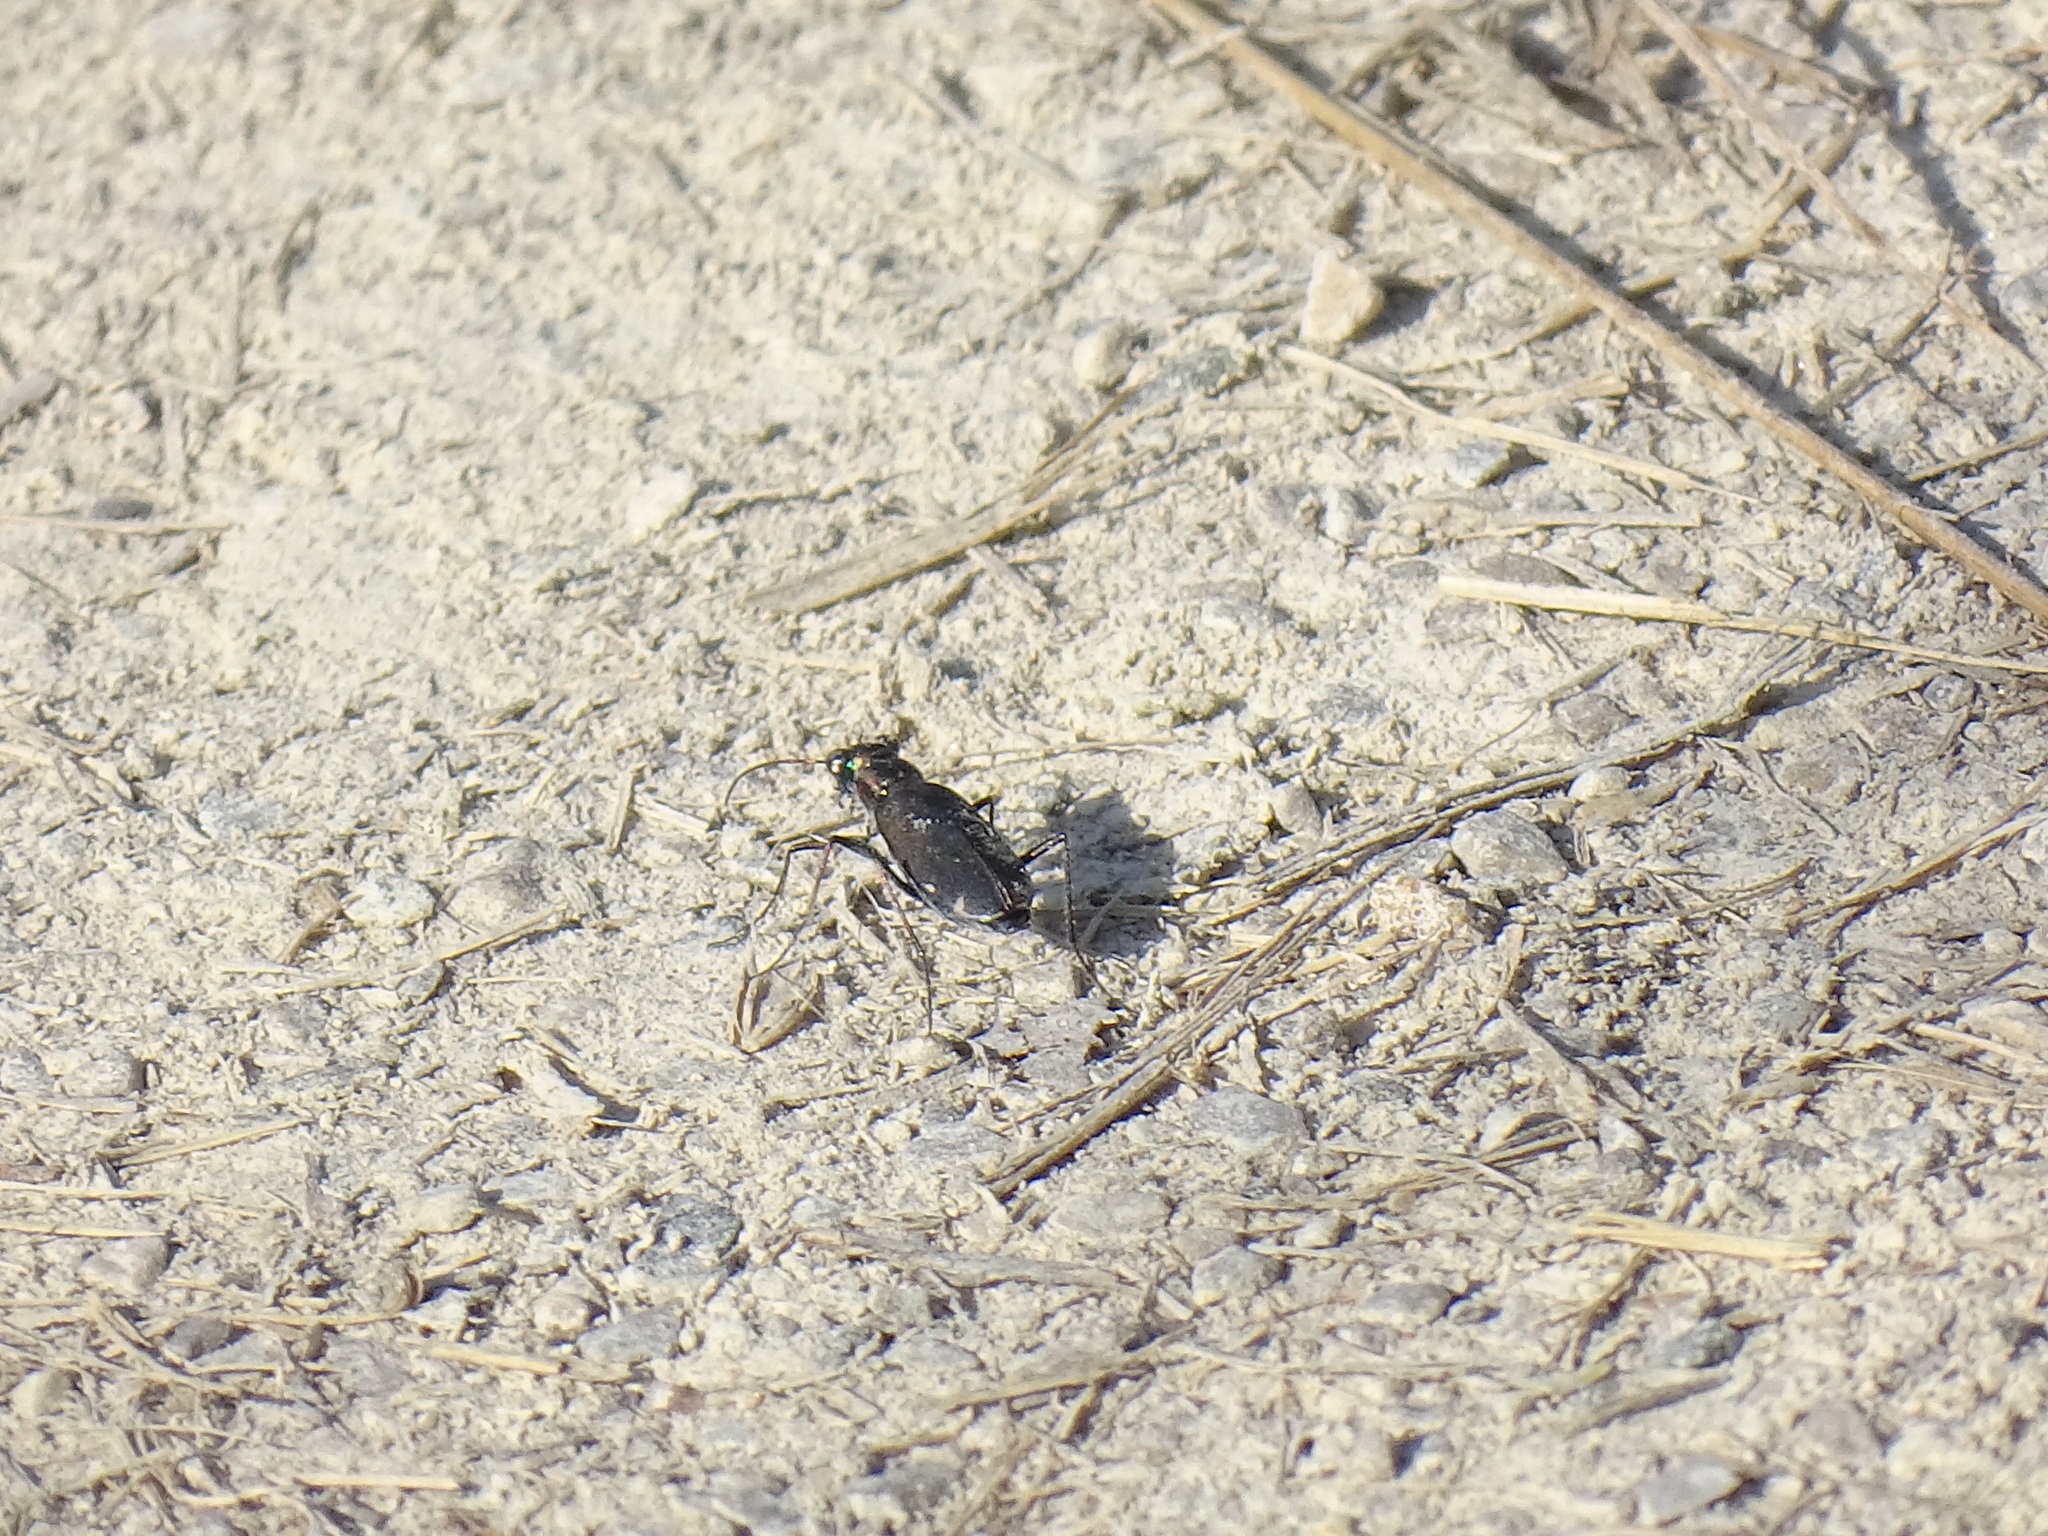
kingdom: Animalia
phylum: Arthropoda
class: Insecta
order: Coleoptera
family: Carabidae
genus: Cicindela
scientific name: Cicindela punctulata
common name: Punctured tiger beetle
